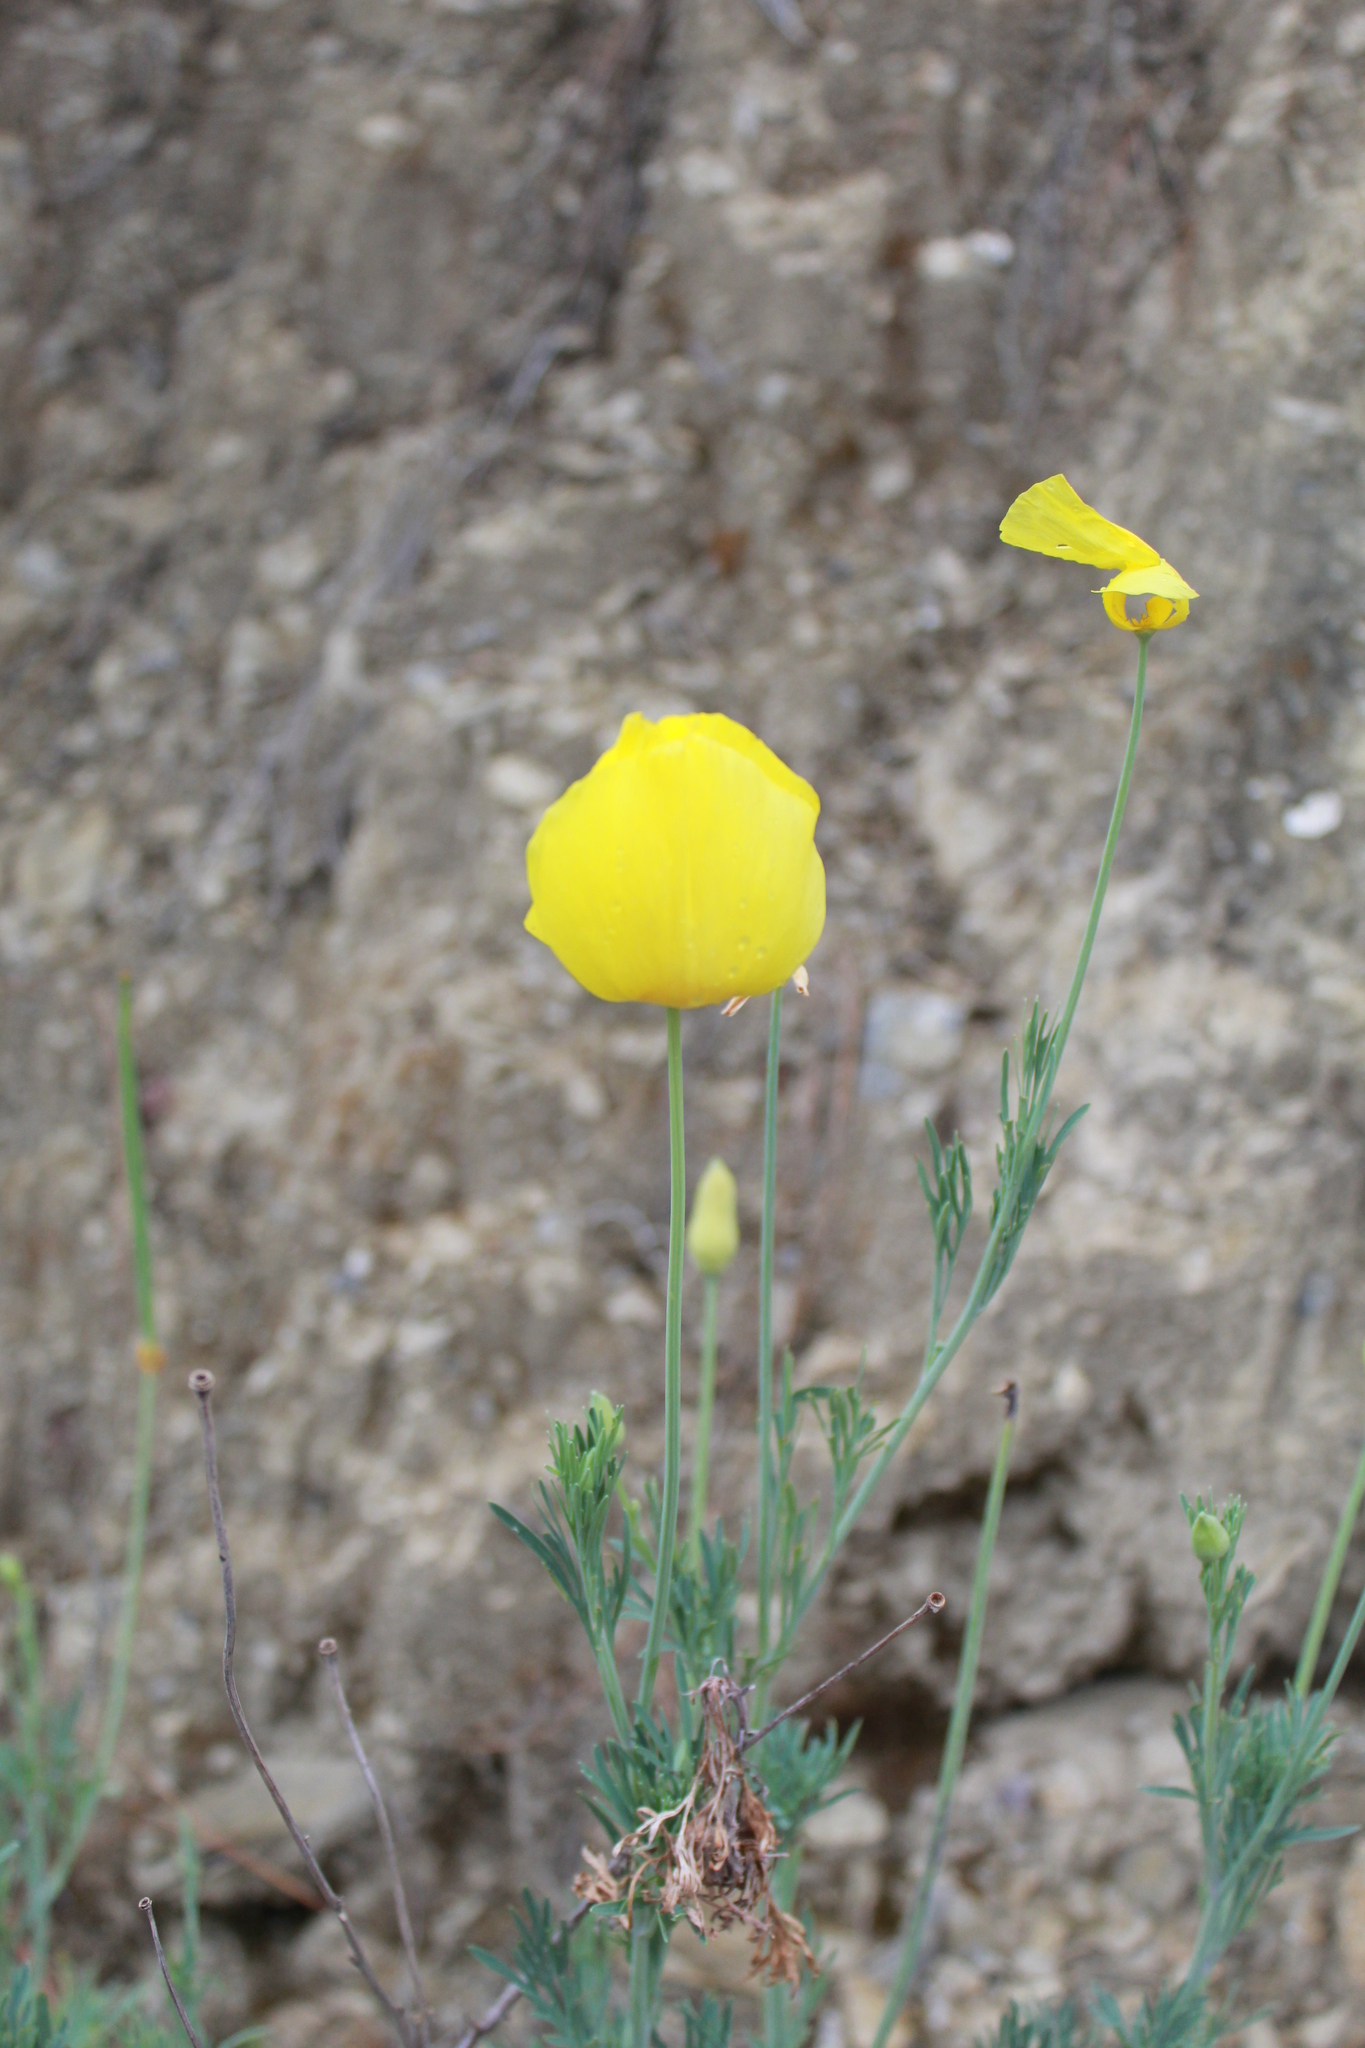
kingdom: Plantae
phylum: Tracheophyta
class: Magnoliopsida
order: Ranunculales
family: Papaveraceae
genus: Hunnemannia
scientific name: Hunnemannia fumariifolia
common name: Mexican tulip poppy
